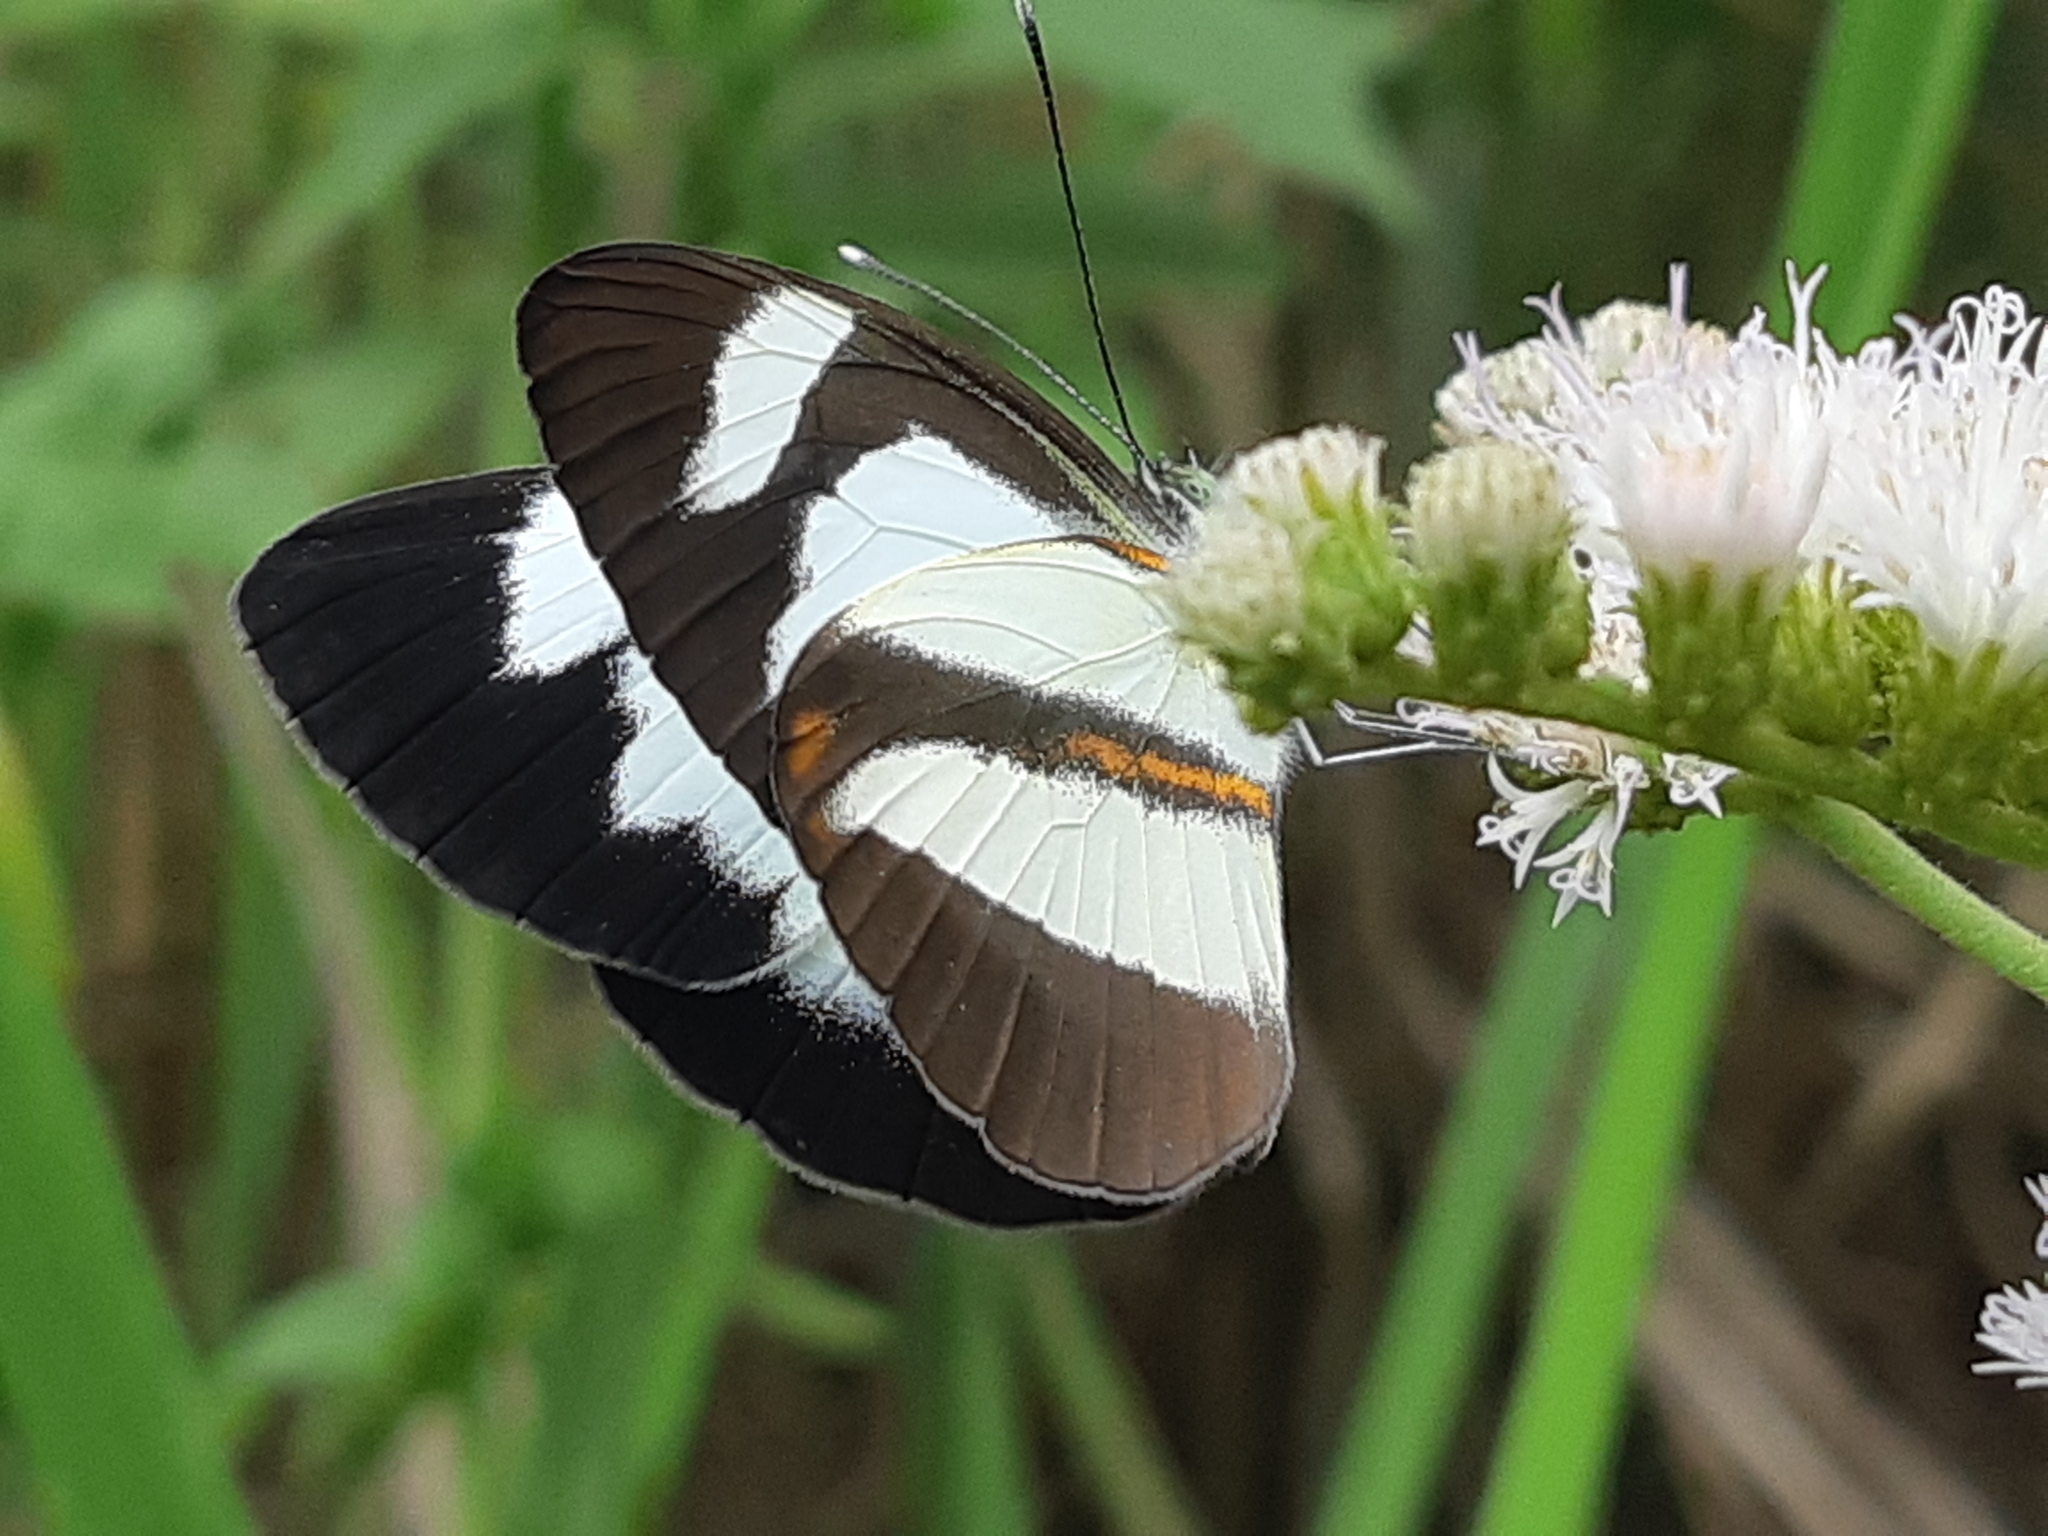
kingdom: Animalia
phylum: Arthropoda
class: Insecta
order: Lepidoptera
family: Pieridae
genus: Itaballia
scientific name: Itaballia marana
